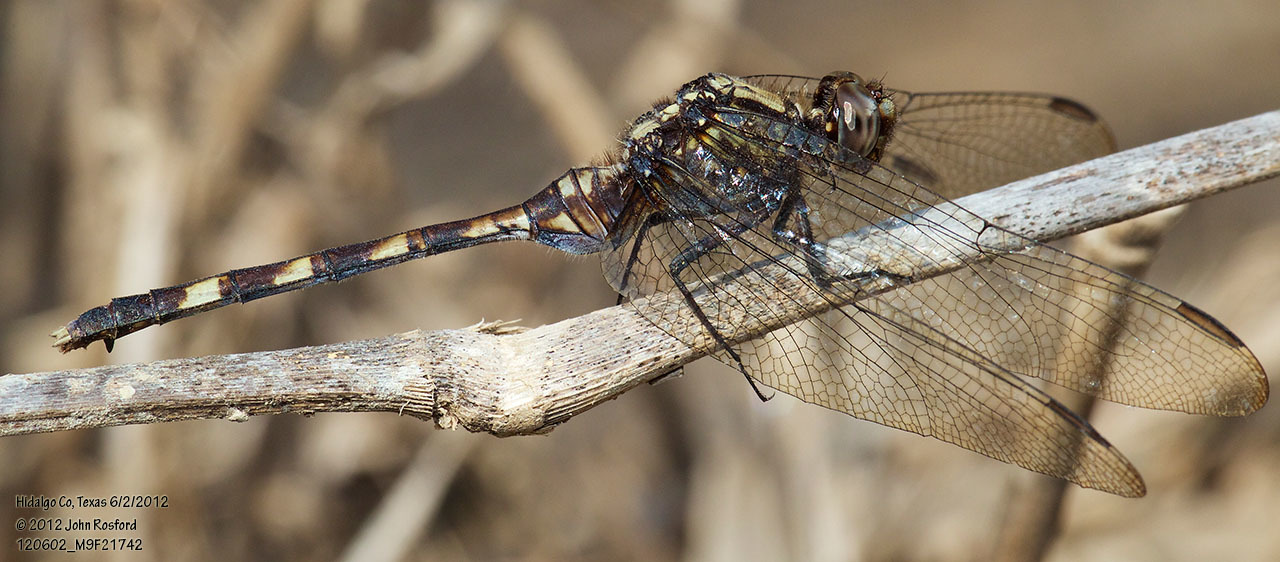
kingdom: Animalia
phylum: Arthropoda
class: Insecta
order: Odonata
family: Libellulidae
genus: Erythemis
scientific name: Erythemis plebeja
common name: Pin-tailed pondhawk
